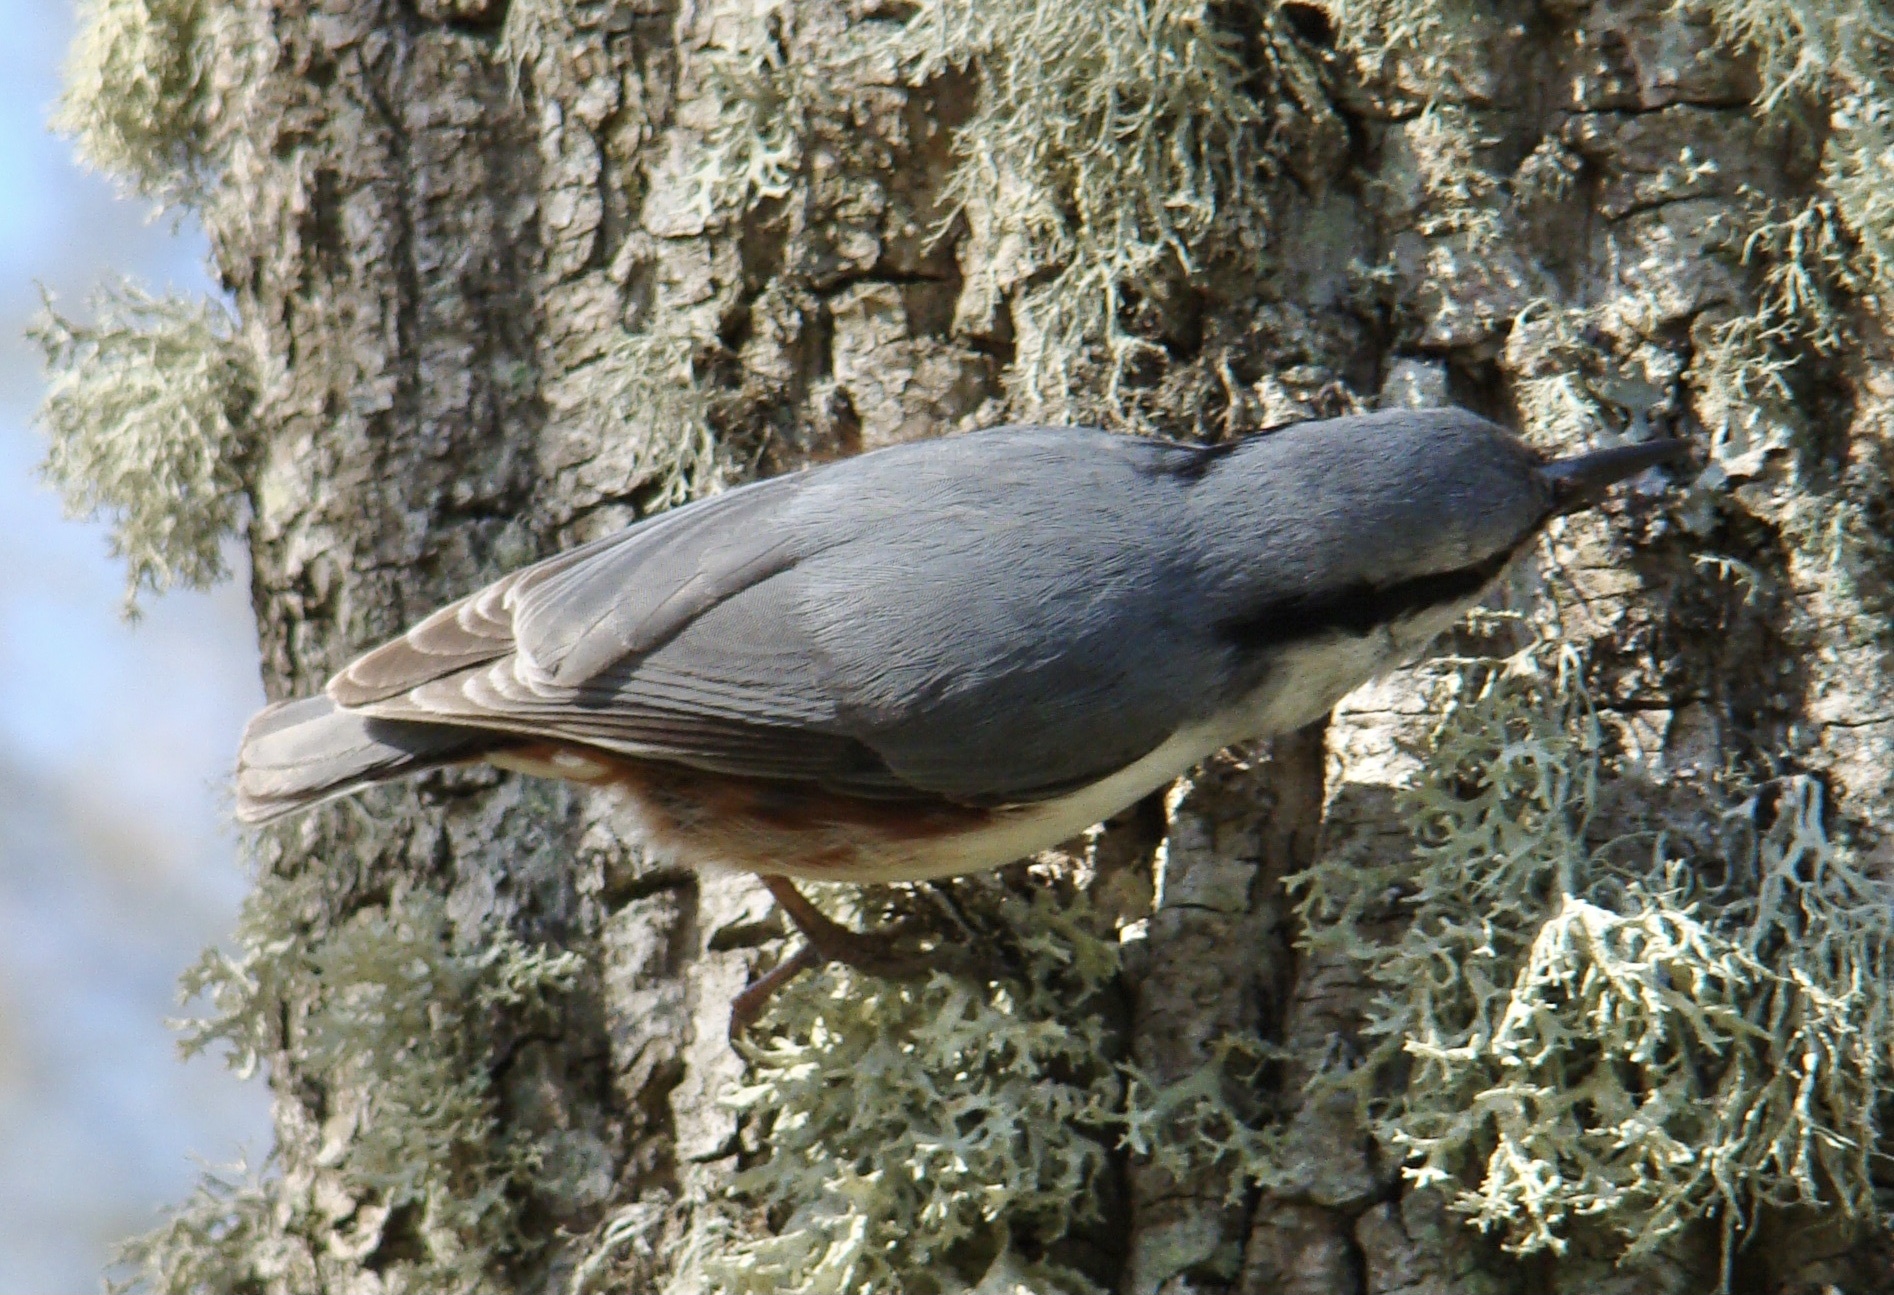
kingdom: Animalia
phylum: Chordata
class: Aves
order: Passeriformes
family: Sittidae
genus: Sitta
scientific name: Sitta europaea
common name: Eurasian nuthatch
